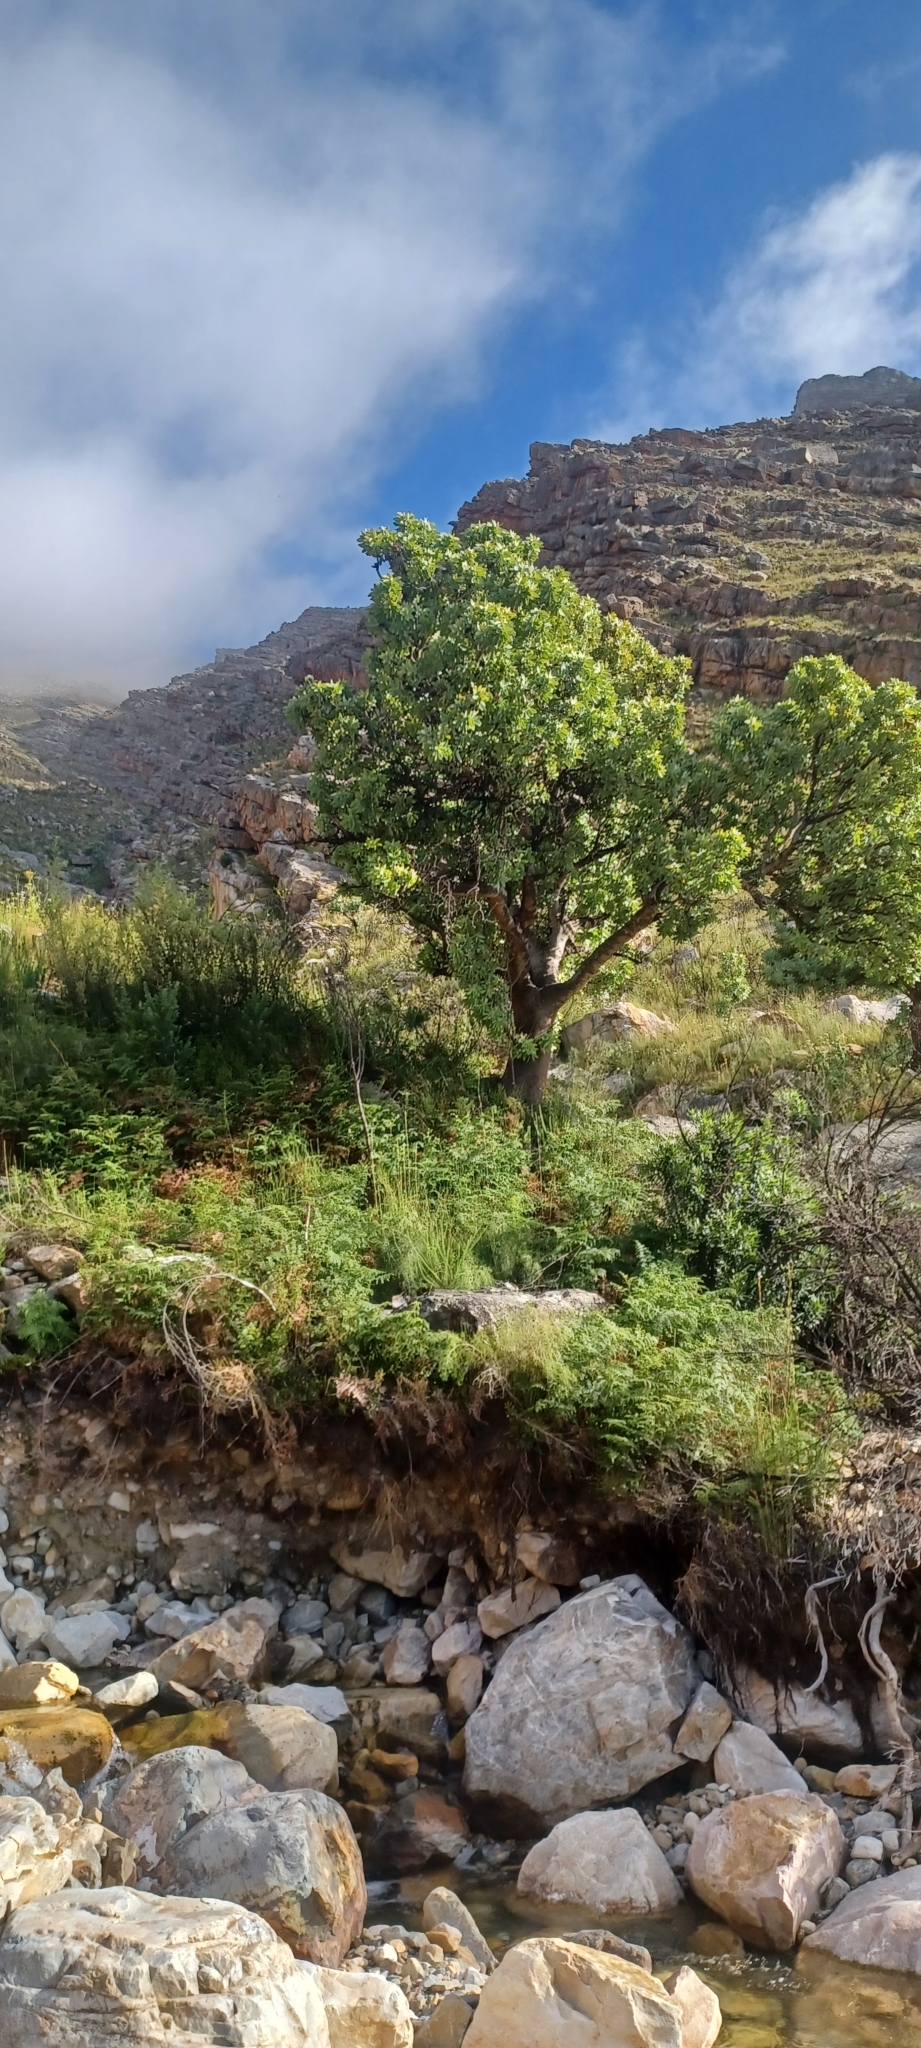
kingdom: Plantae
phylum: Tracheophyta
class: Magnoliopsida
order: Proteales
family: Proteaceae
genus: Protea
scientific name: Protea nitida
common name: Tree protea
